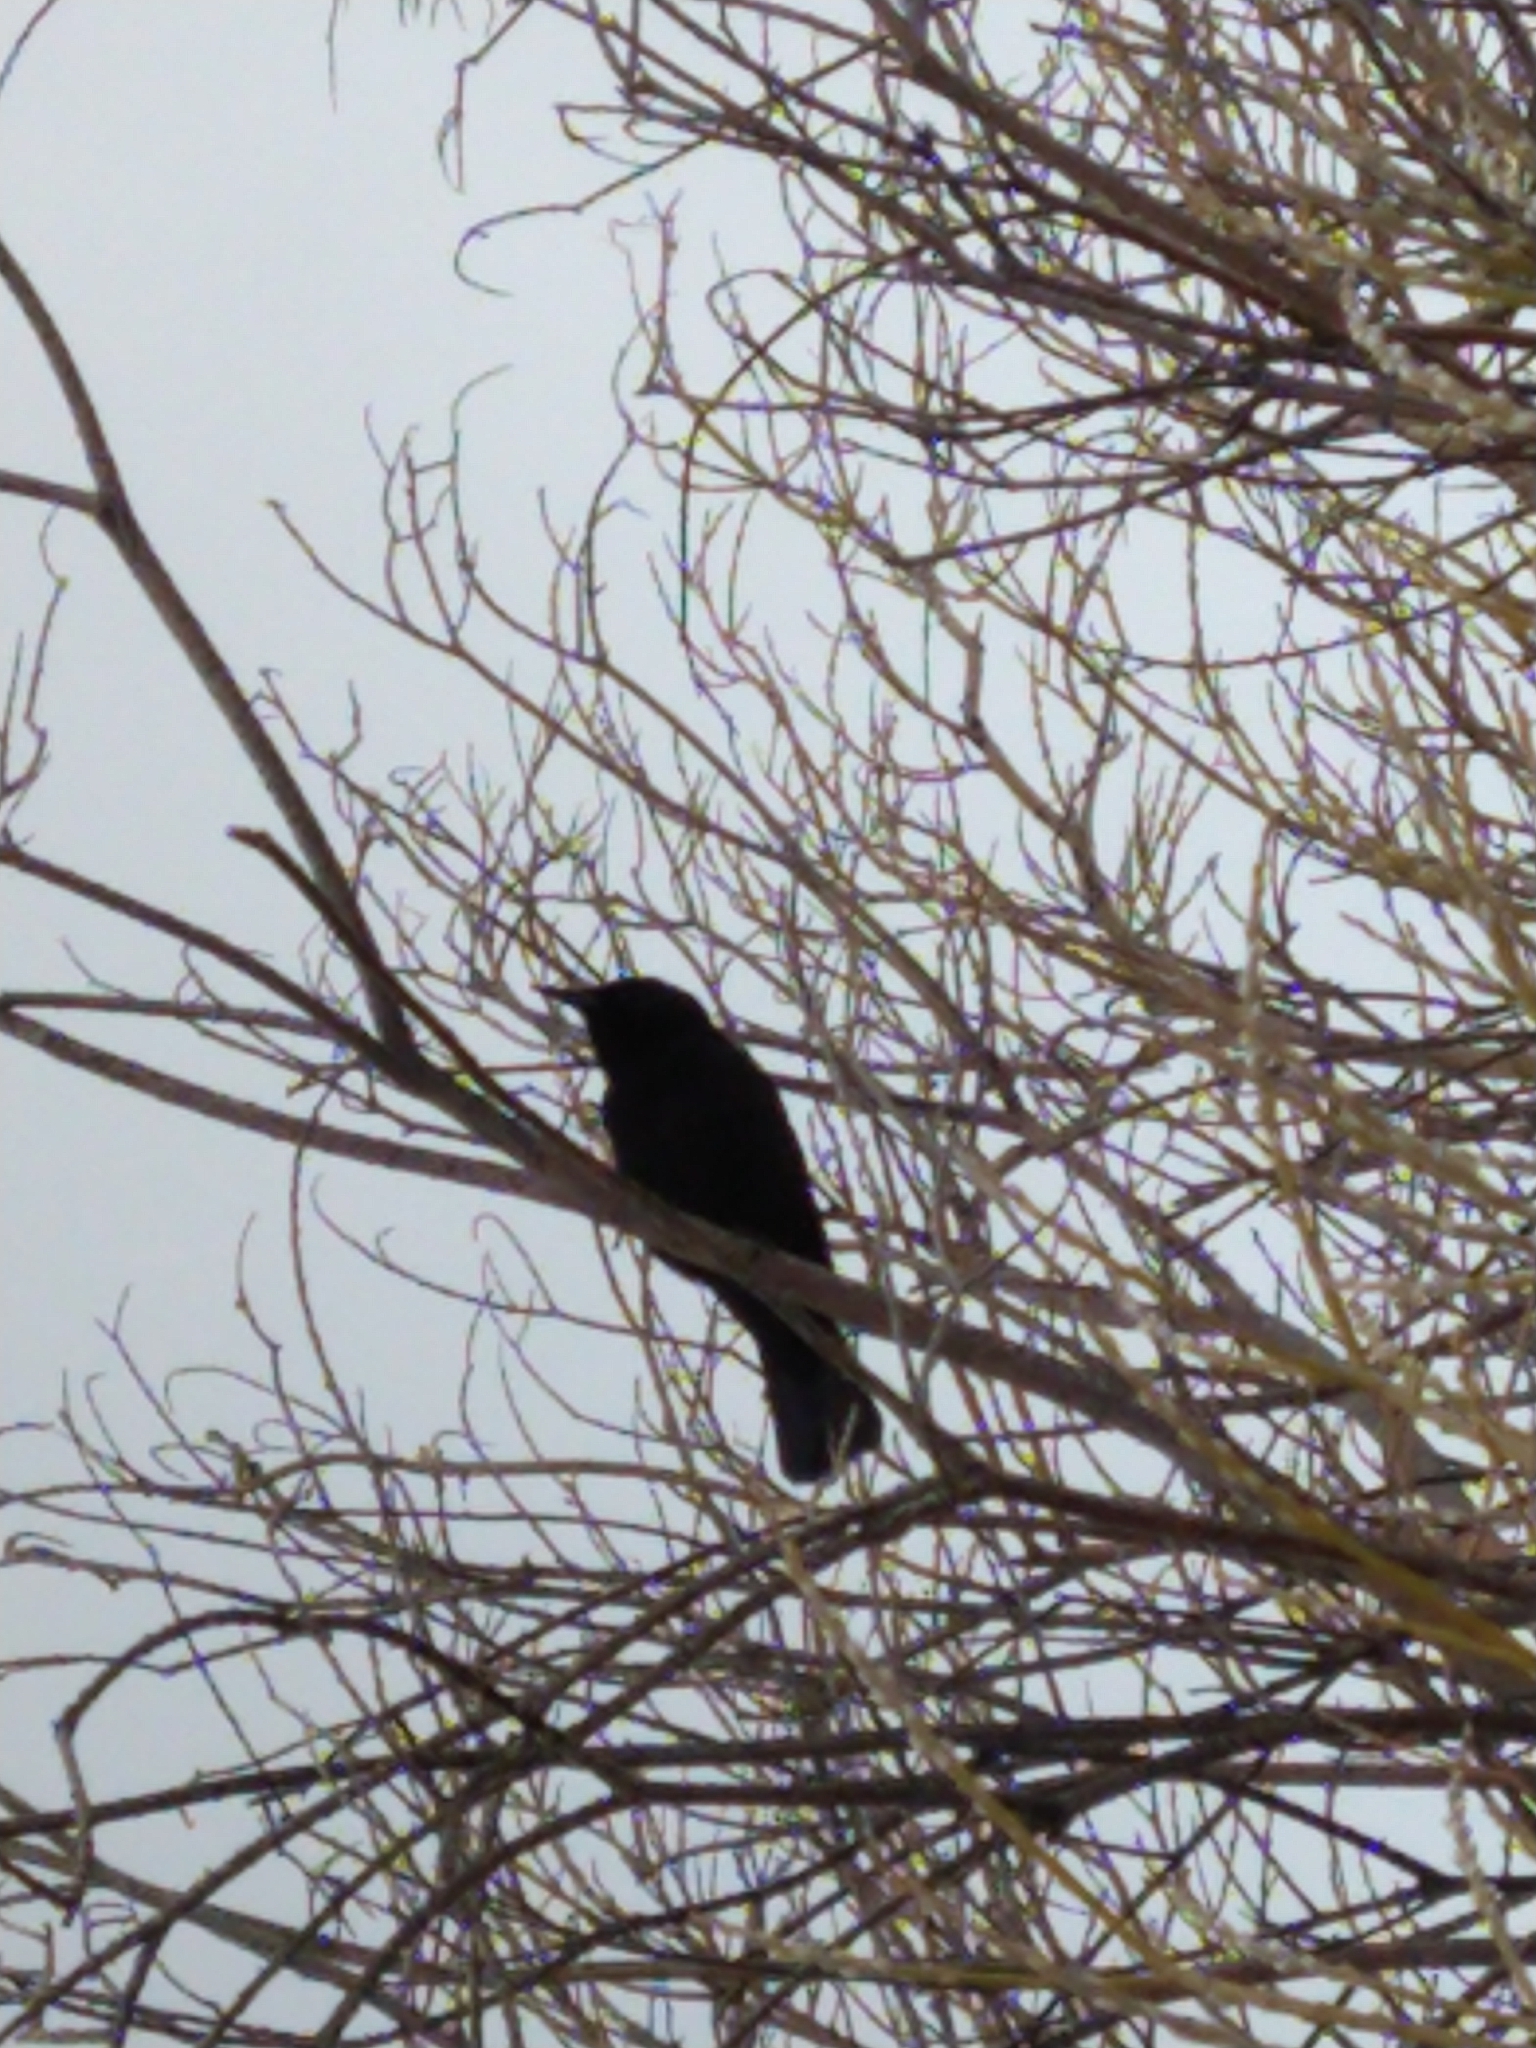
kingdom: Animalia
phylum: Chordata
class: Aves
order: Passeriformes
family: Icteridae
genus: Curaeus
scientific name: Curaeus curaeus
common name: Austral blackbird
